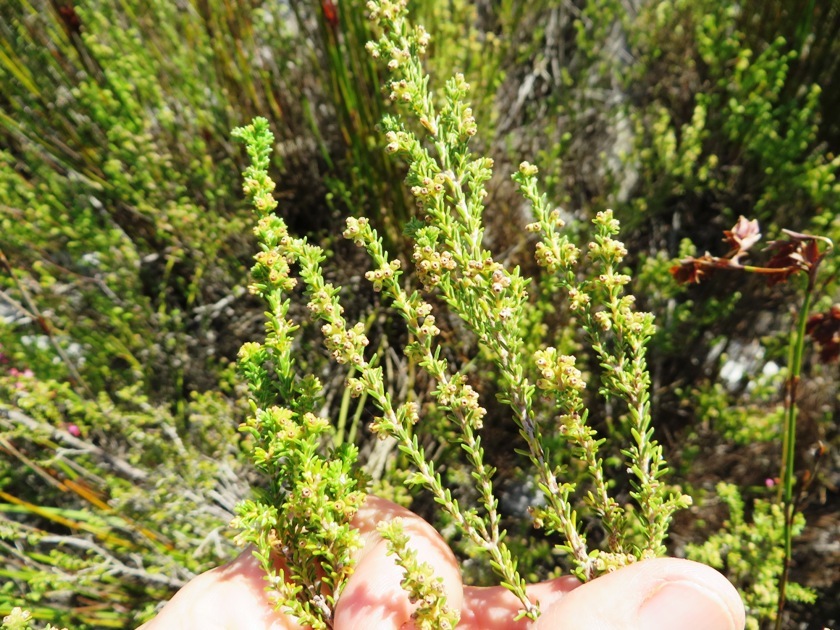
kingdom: Plantae
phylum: Tracheophyta
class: Magnoliopsida
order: Ericales
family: Ericaceae
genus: Erica
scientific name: Erica tristis
